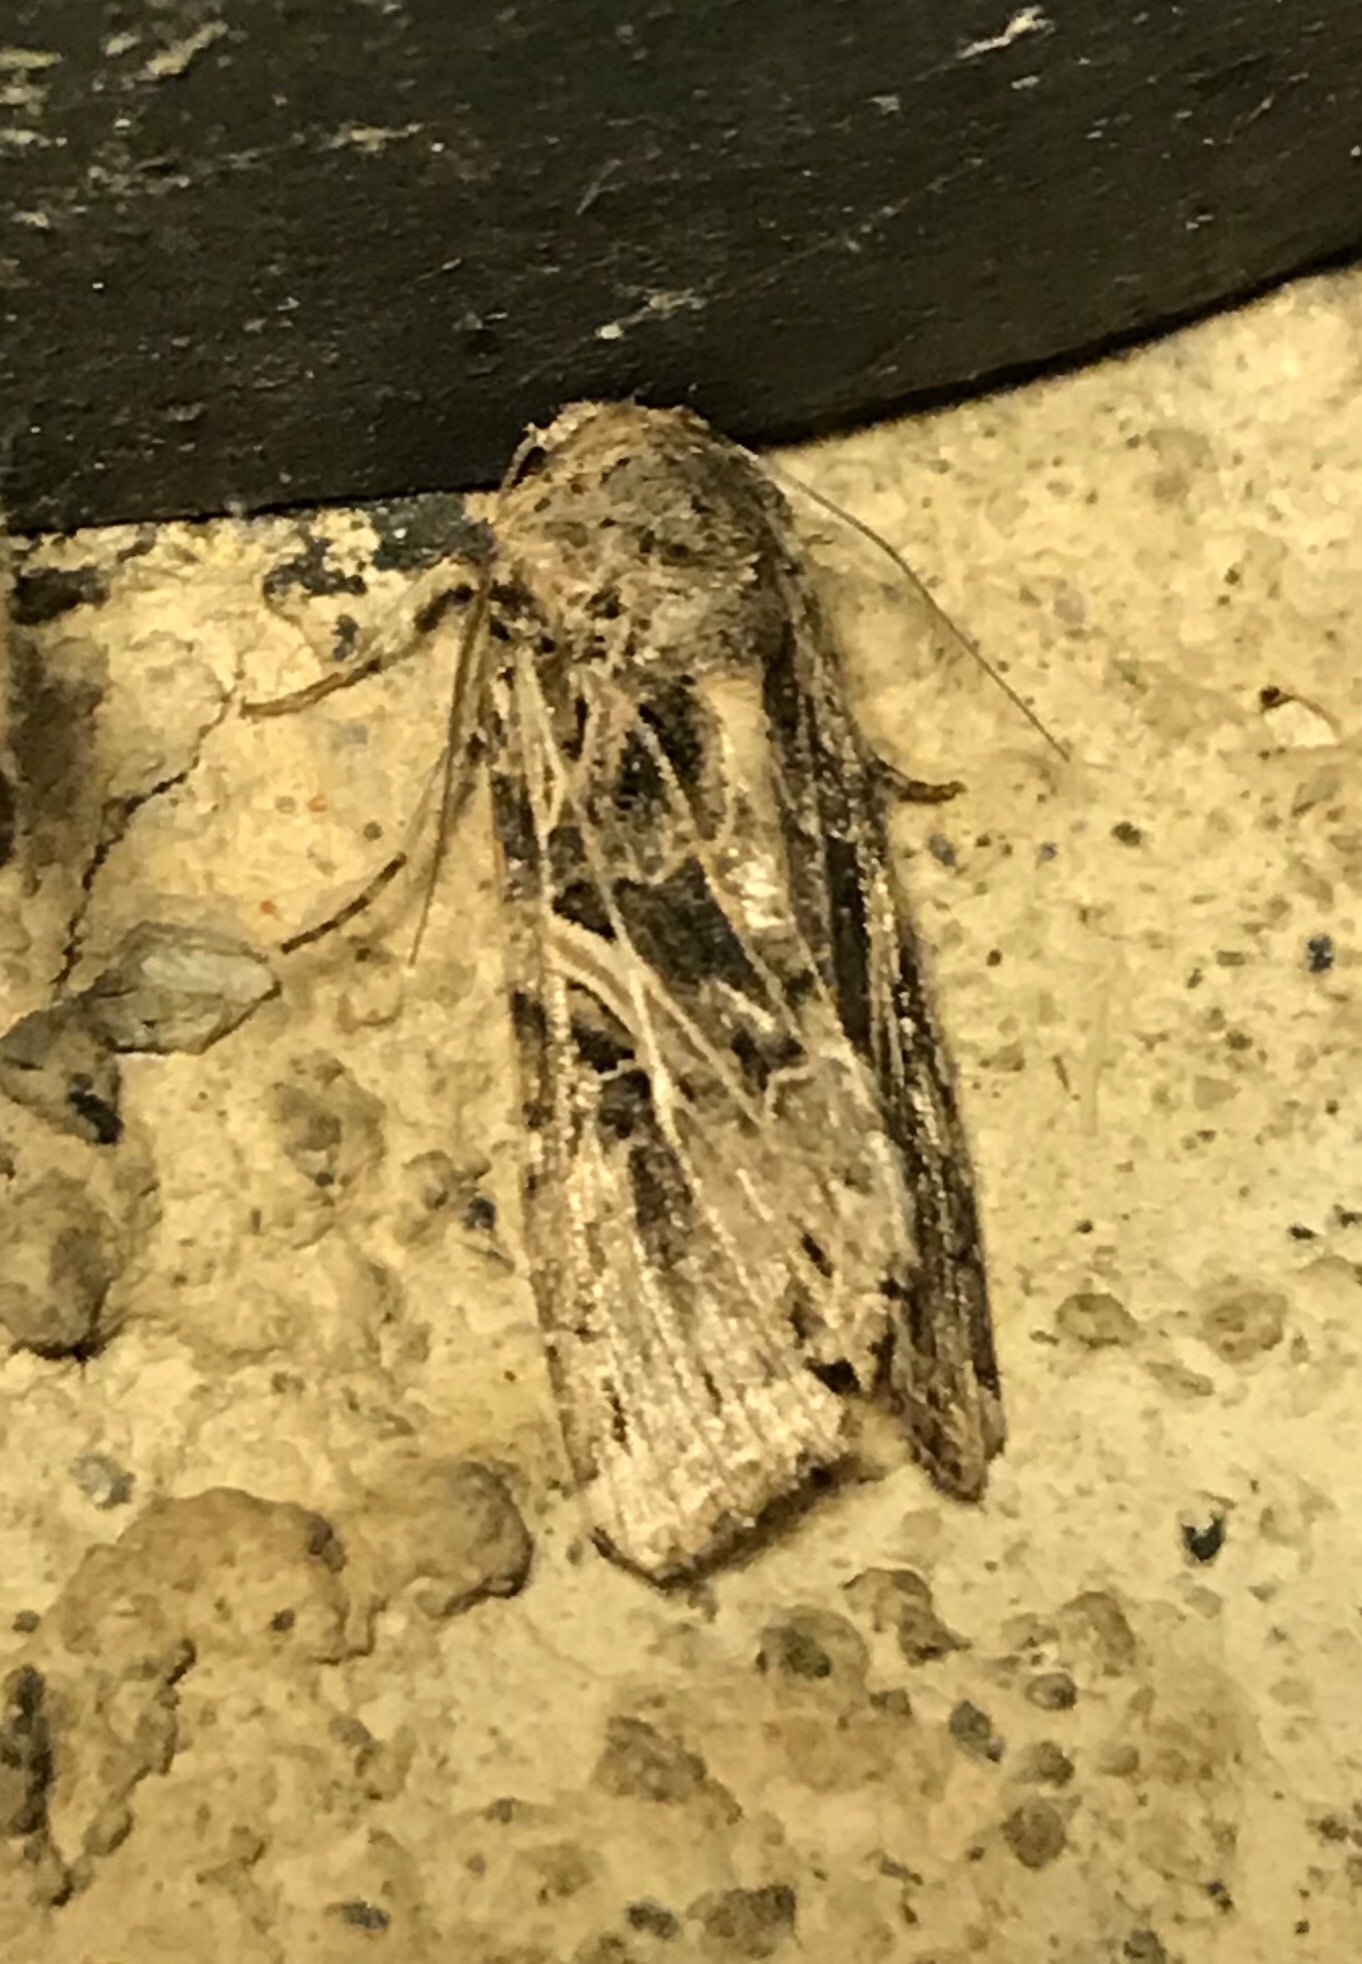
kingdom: Animalia
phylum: Arthropoda
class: Insecta
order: Lepidoptera
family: Noctuidae
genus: Spodoptera
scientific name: Spodoptera ornithogalli
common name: Yellow-striped armyworm
